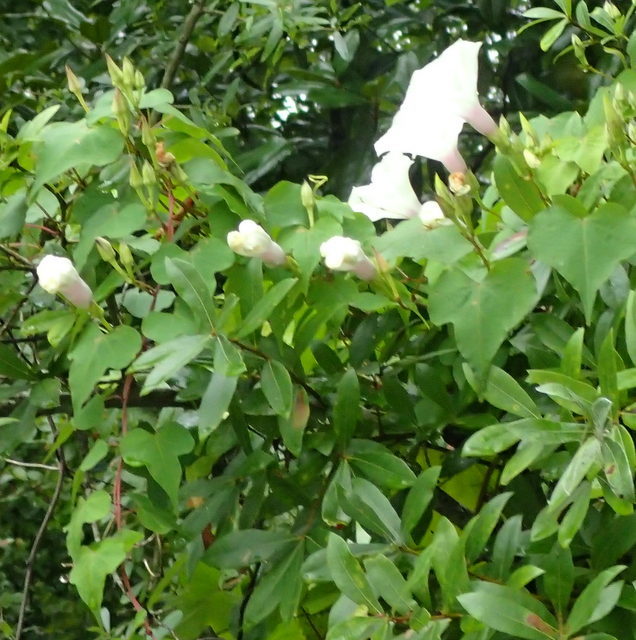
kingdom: Plantae
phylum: Tracheophyta
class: Magnoliopsida
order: Solanales
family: Convolvulaceae
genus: Ipomoea
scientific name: Ipomoea pandurata
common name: Man-of-the-earth
